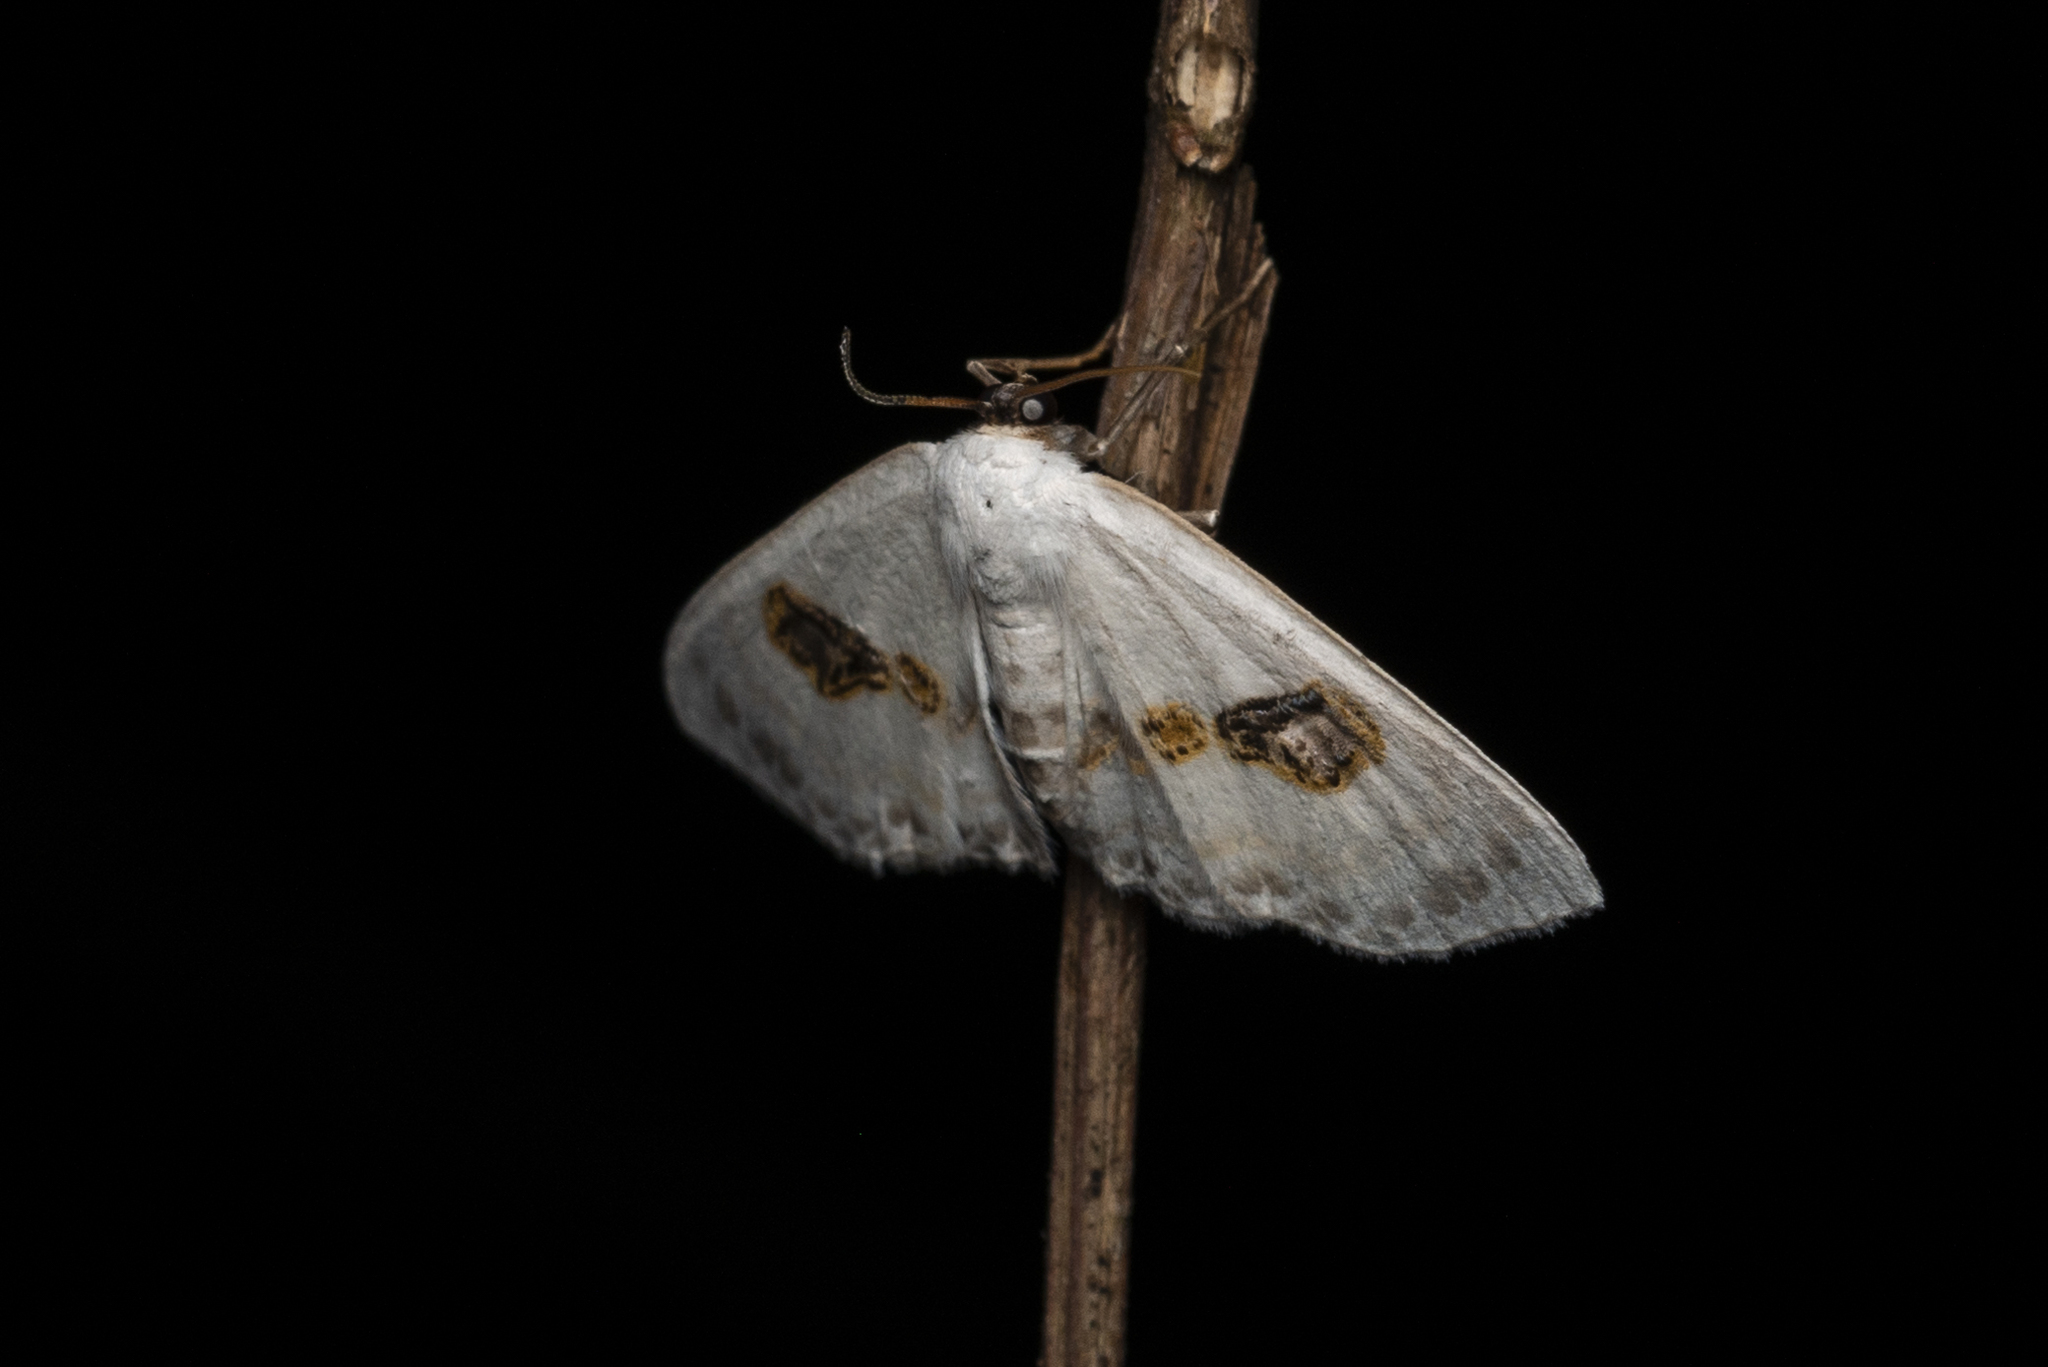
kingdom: Animalia
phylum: Arthropoda
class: Insecta
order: Lepidoptera
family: Geometridae
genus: Problepsis
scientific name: Problepsis vulgaris
